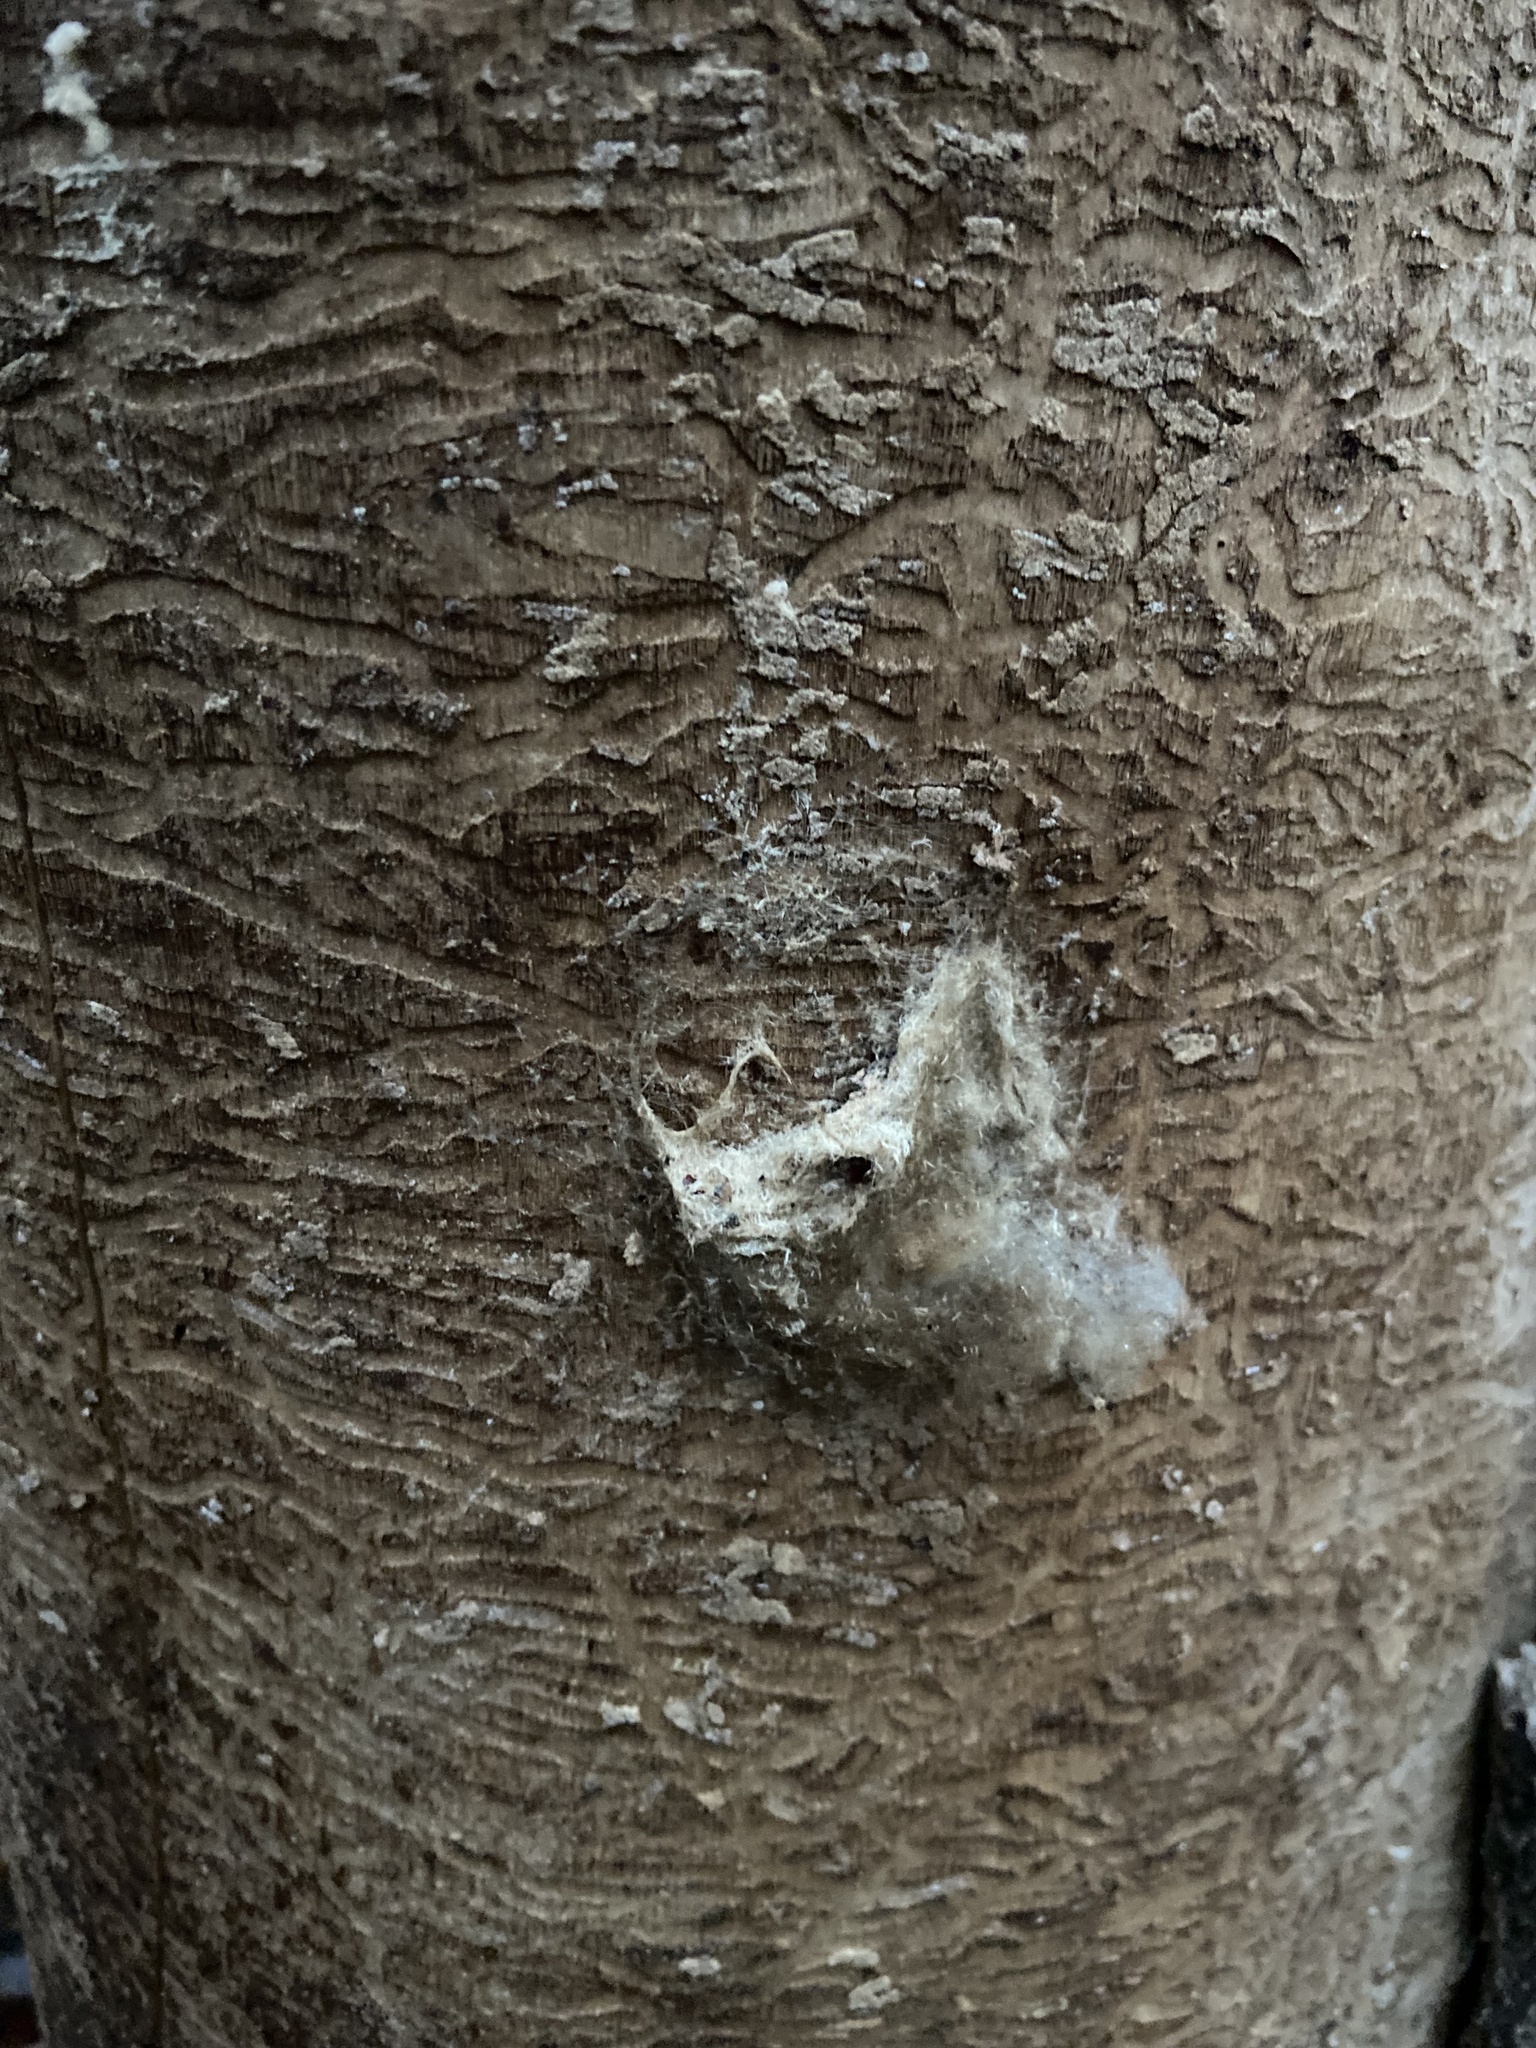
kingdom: Animalia
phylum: Arthropoda
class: Insecta
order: Coleoptera
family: Buprestidae
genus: Agrilus
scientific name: Agrilus planipennis
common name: Emerald ash borer
